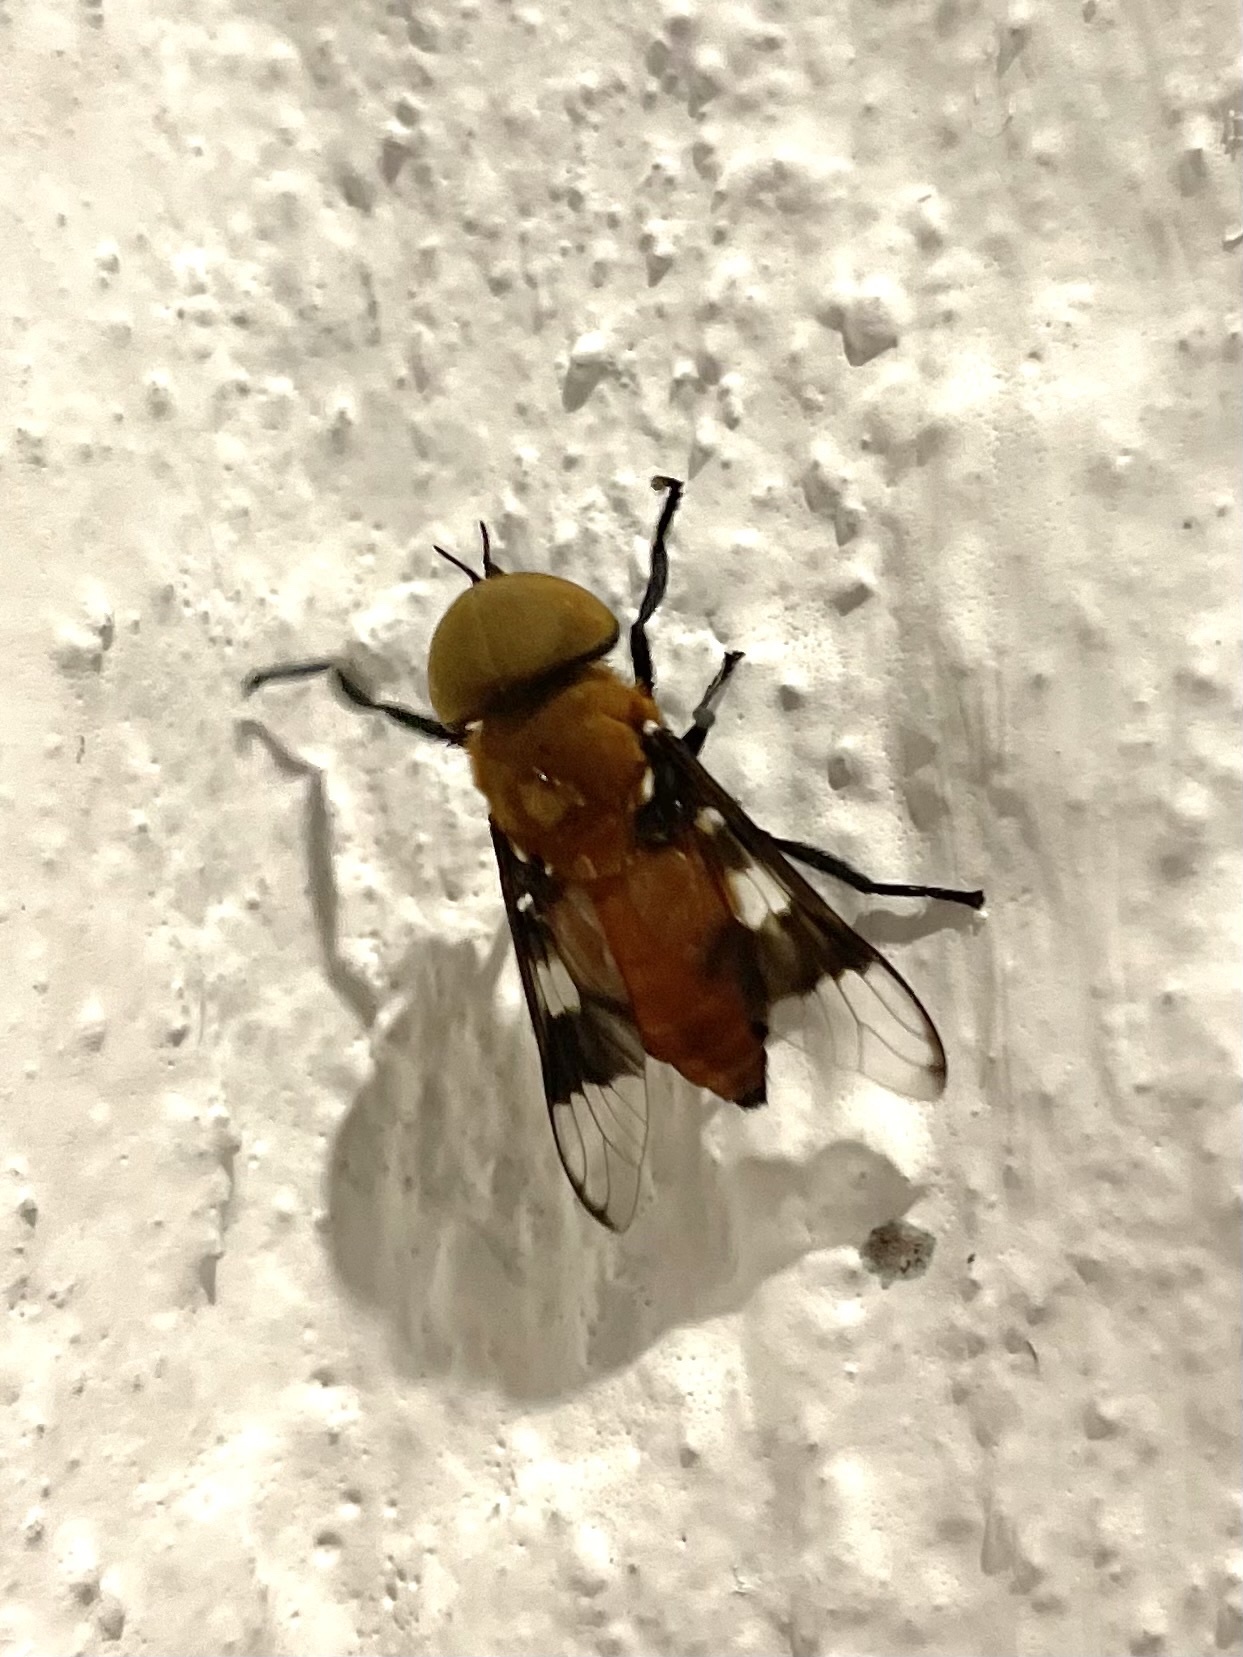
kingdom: Animalia
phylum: Arthropoda
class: Insecta
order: Diptera
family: Tabanidae
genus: Ancala
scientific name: Ancala africana
